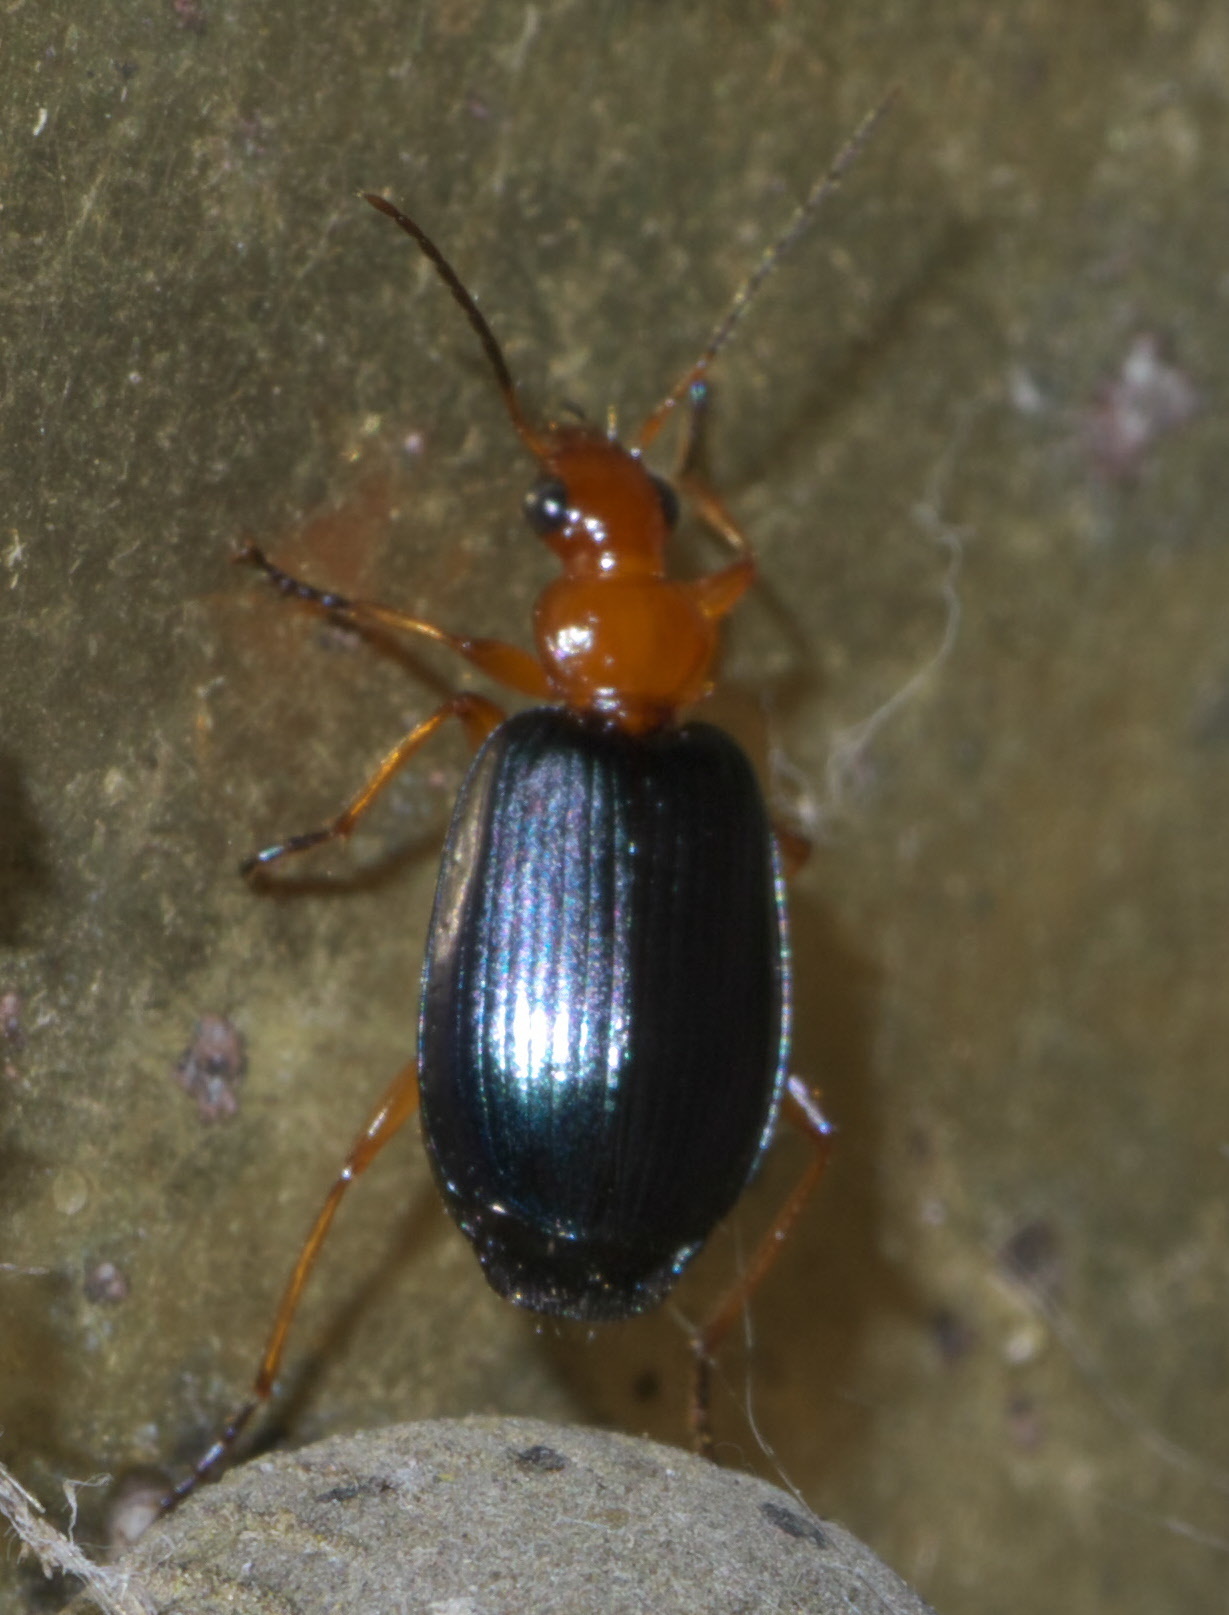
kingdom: Animalia
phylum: Arthropoda
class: Insecta
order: Coleoptera
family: Carabidae
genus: Lebia
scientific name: Lebia atriventris
